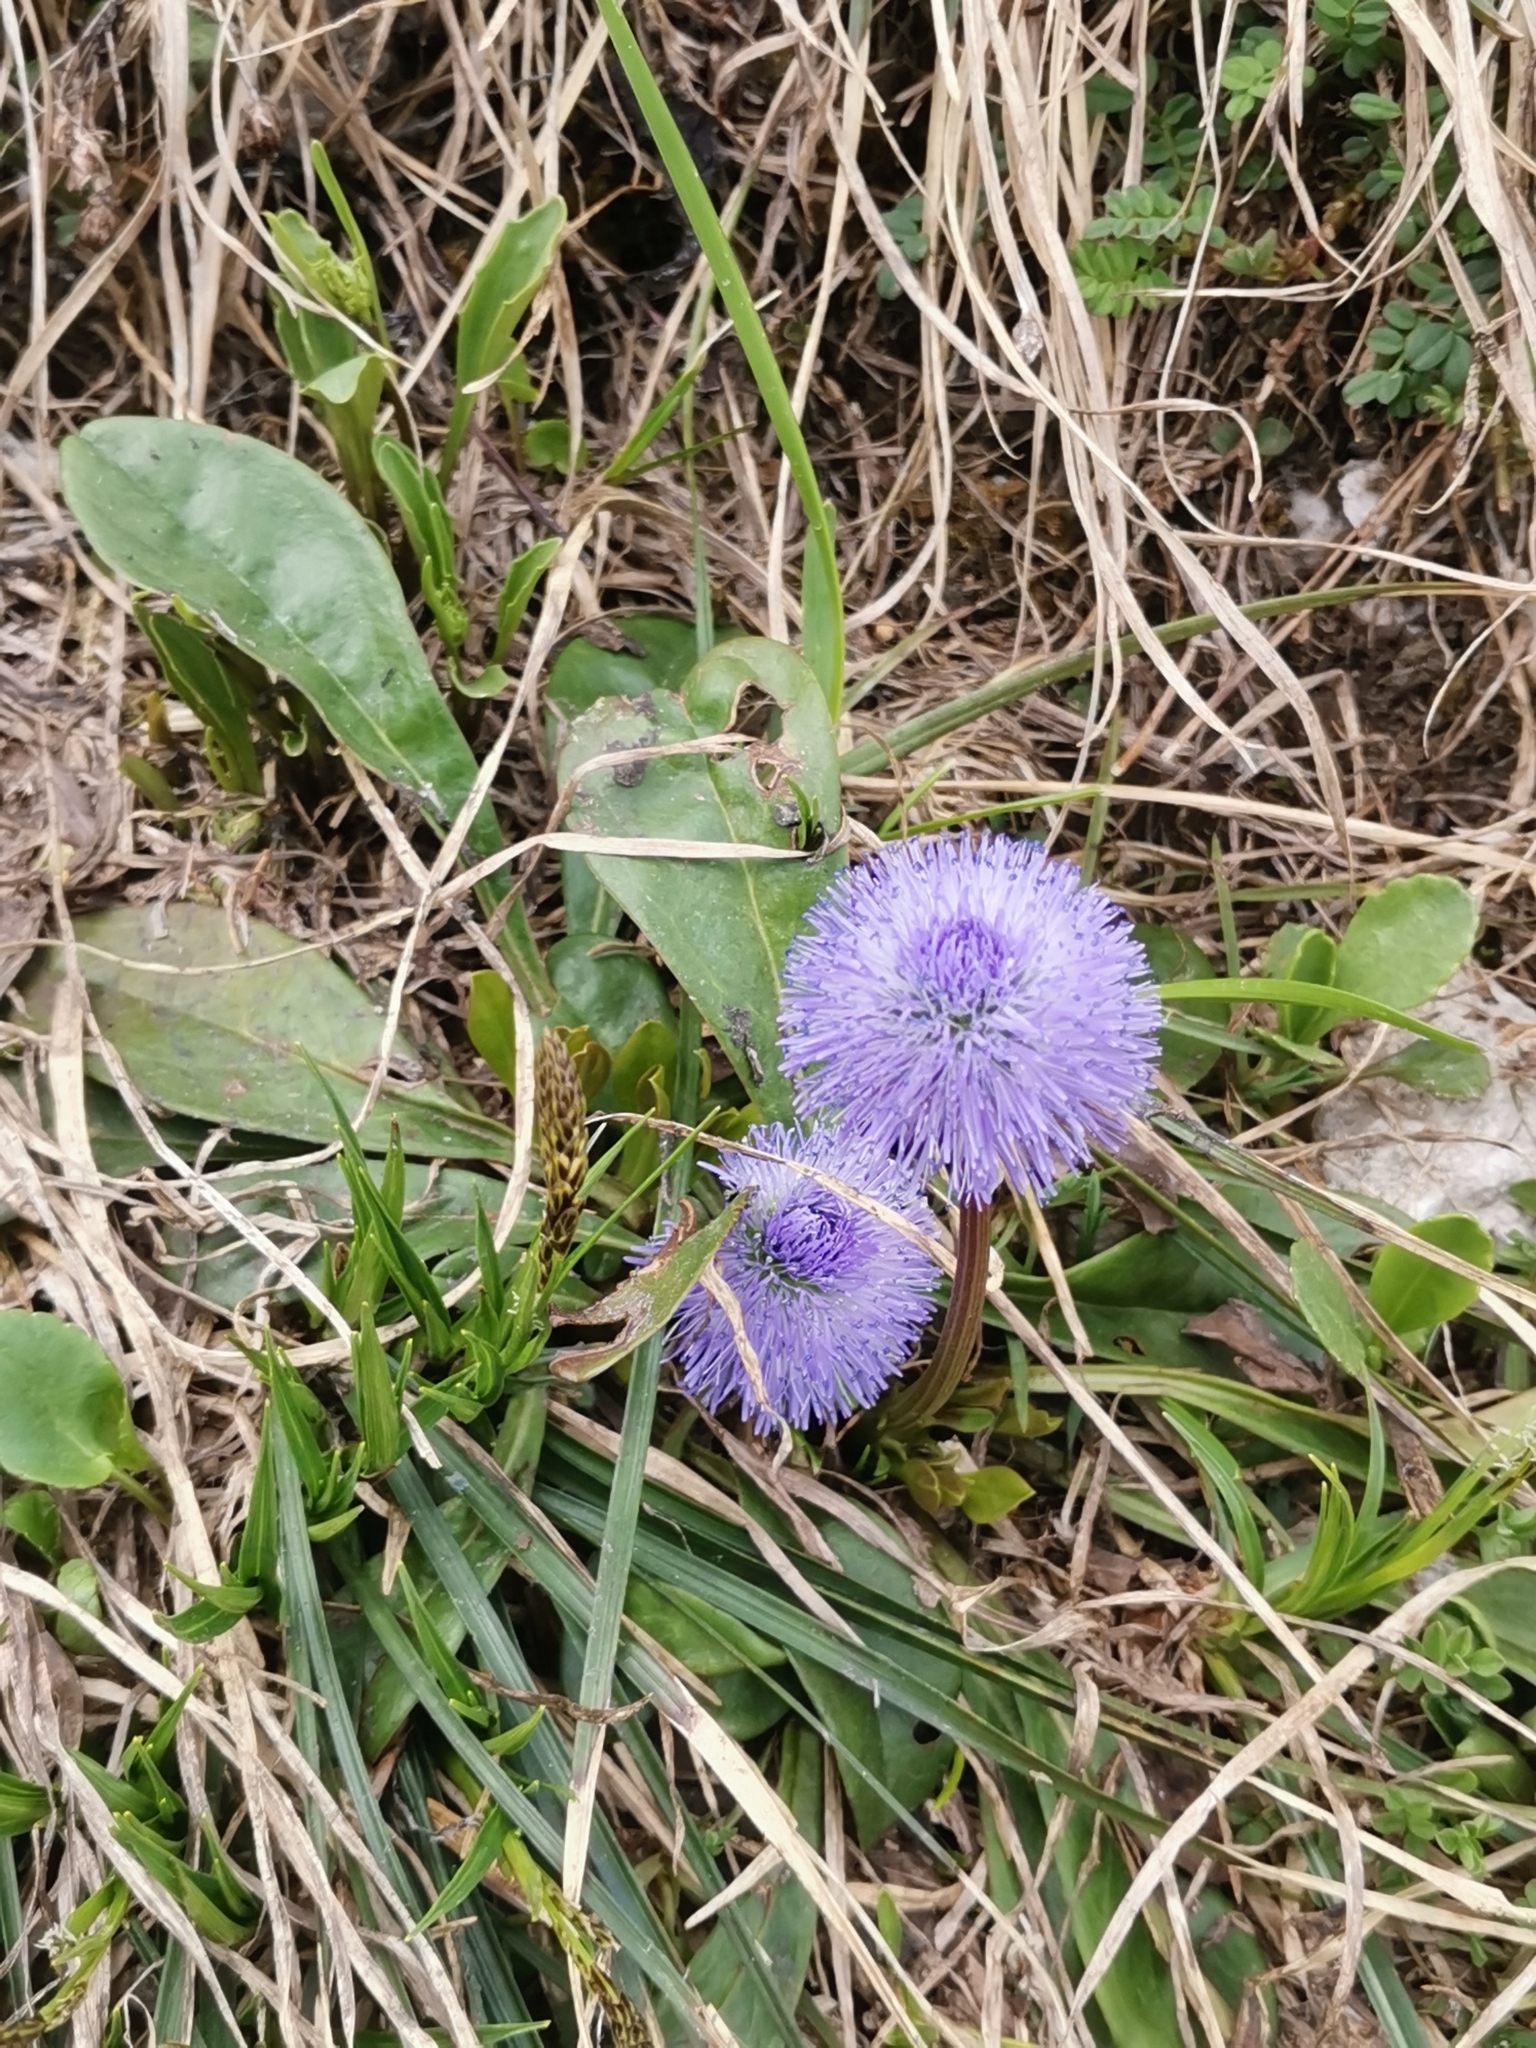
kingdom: Plantae
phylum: Tracheophyta
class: Magnoliopsida
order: Lamiales
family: Plantaginaceae
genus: Globularia
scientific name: Globularia nudicaulis
